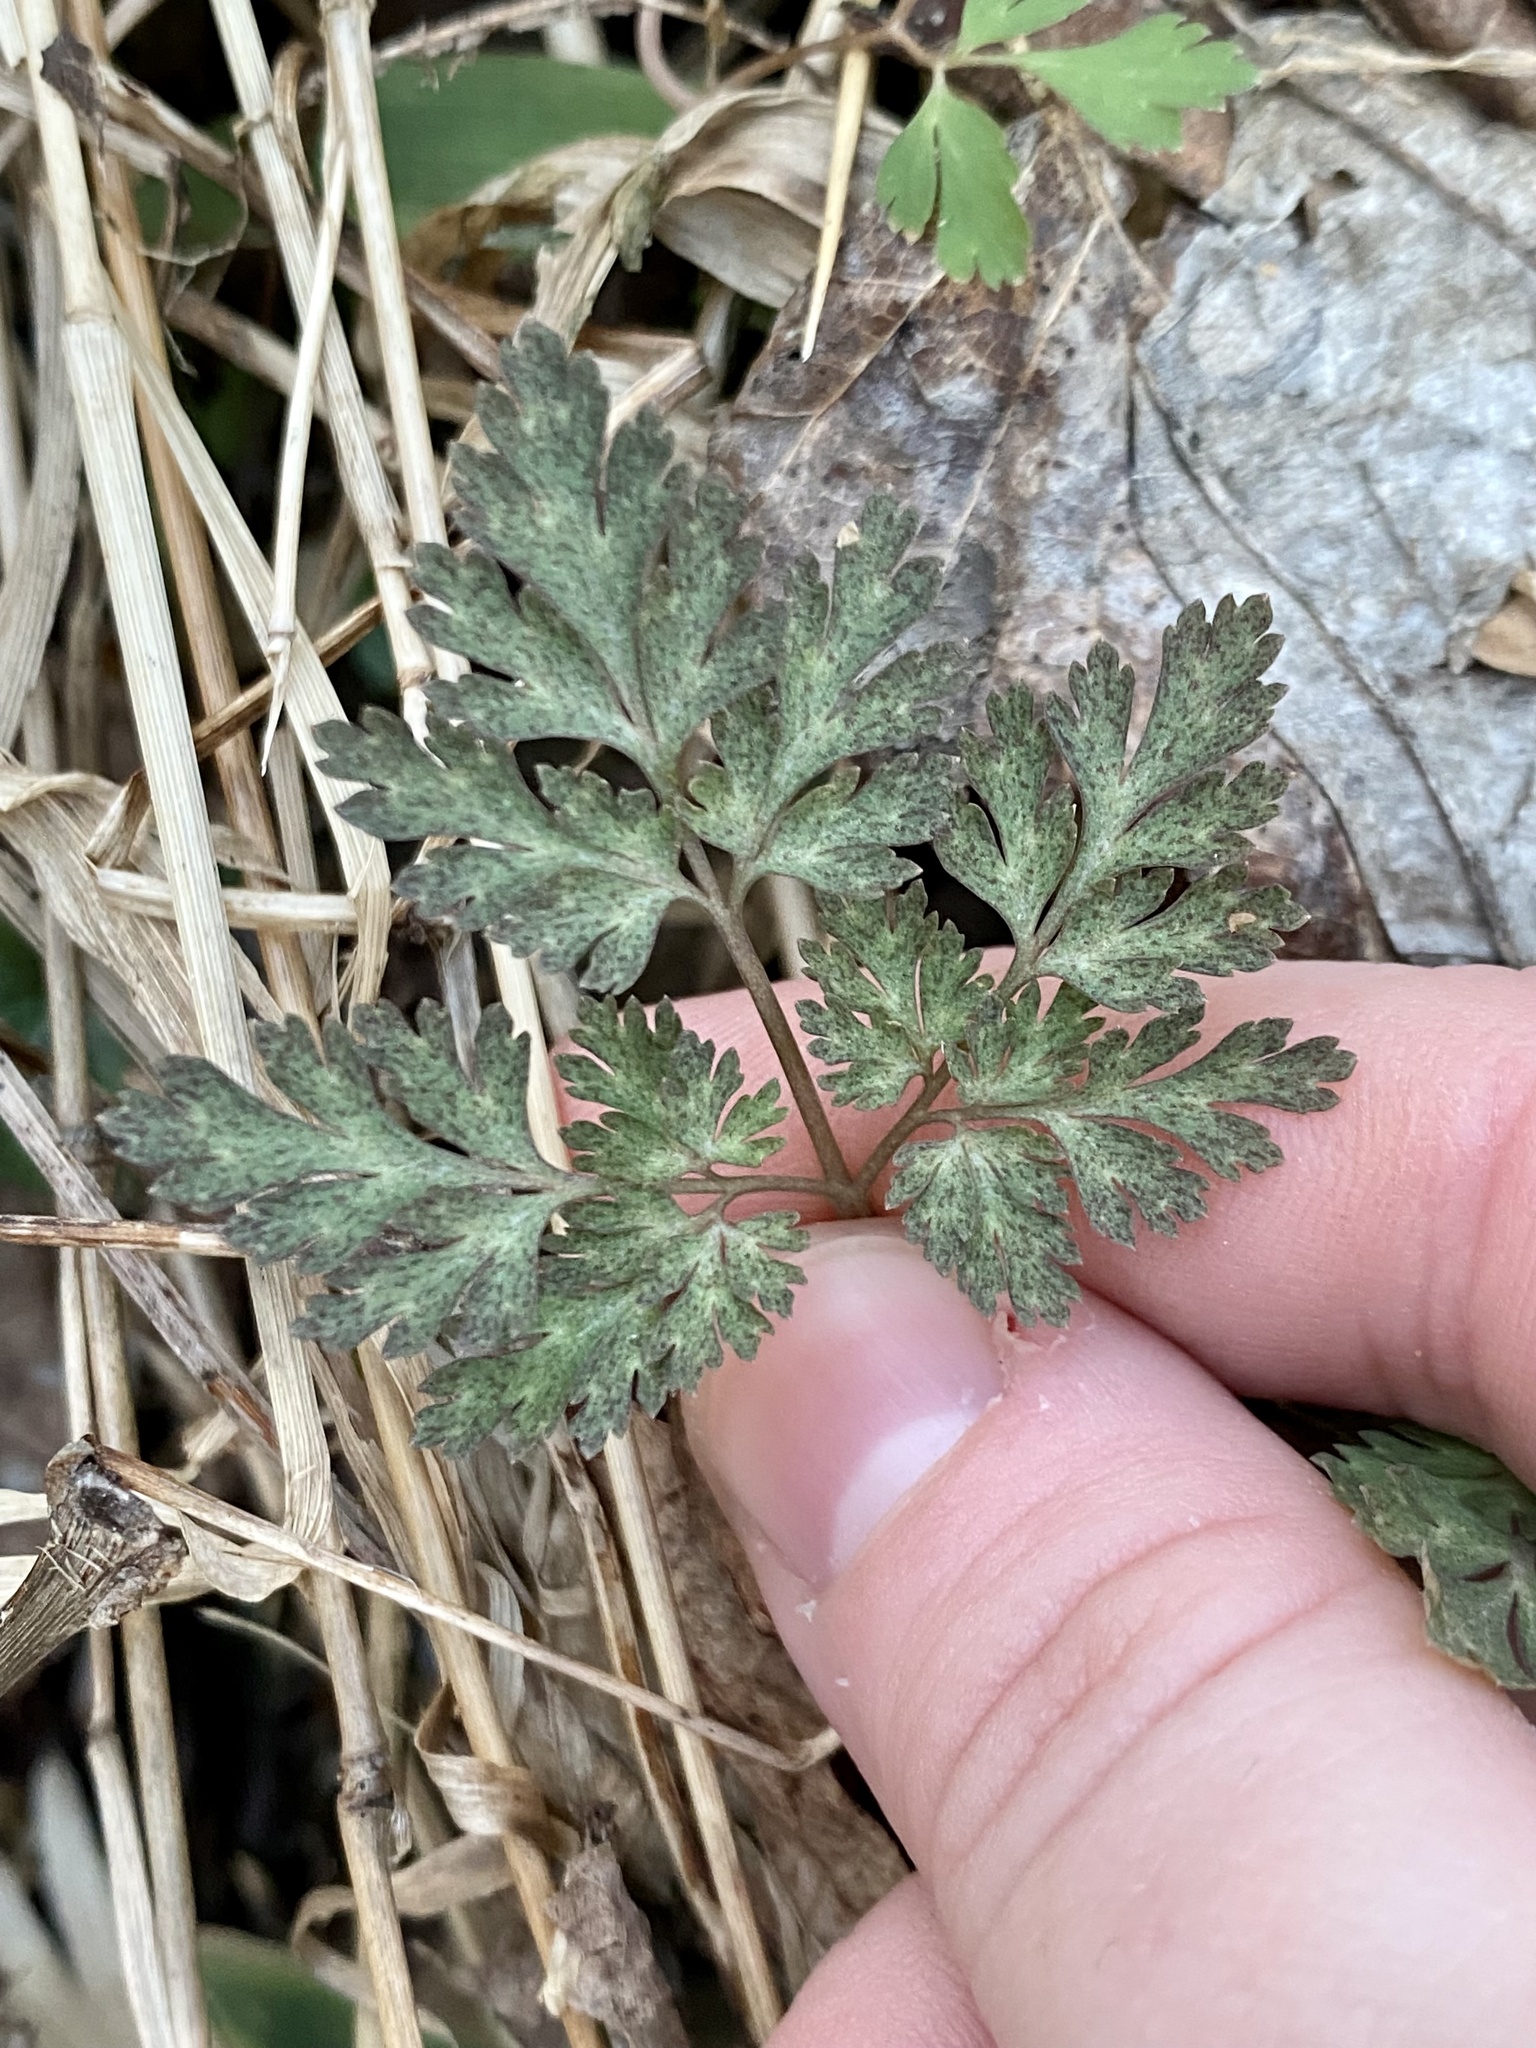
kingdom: Plantae
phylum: Tracheophyta
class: Magnoliopsida
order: Ranunculales
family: Papaveraceae
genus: Corydalis
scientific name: Corydalis incisa
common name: Incised fumewort
